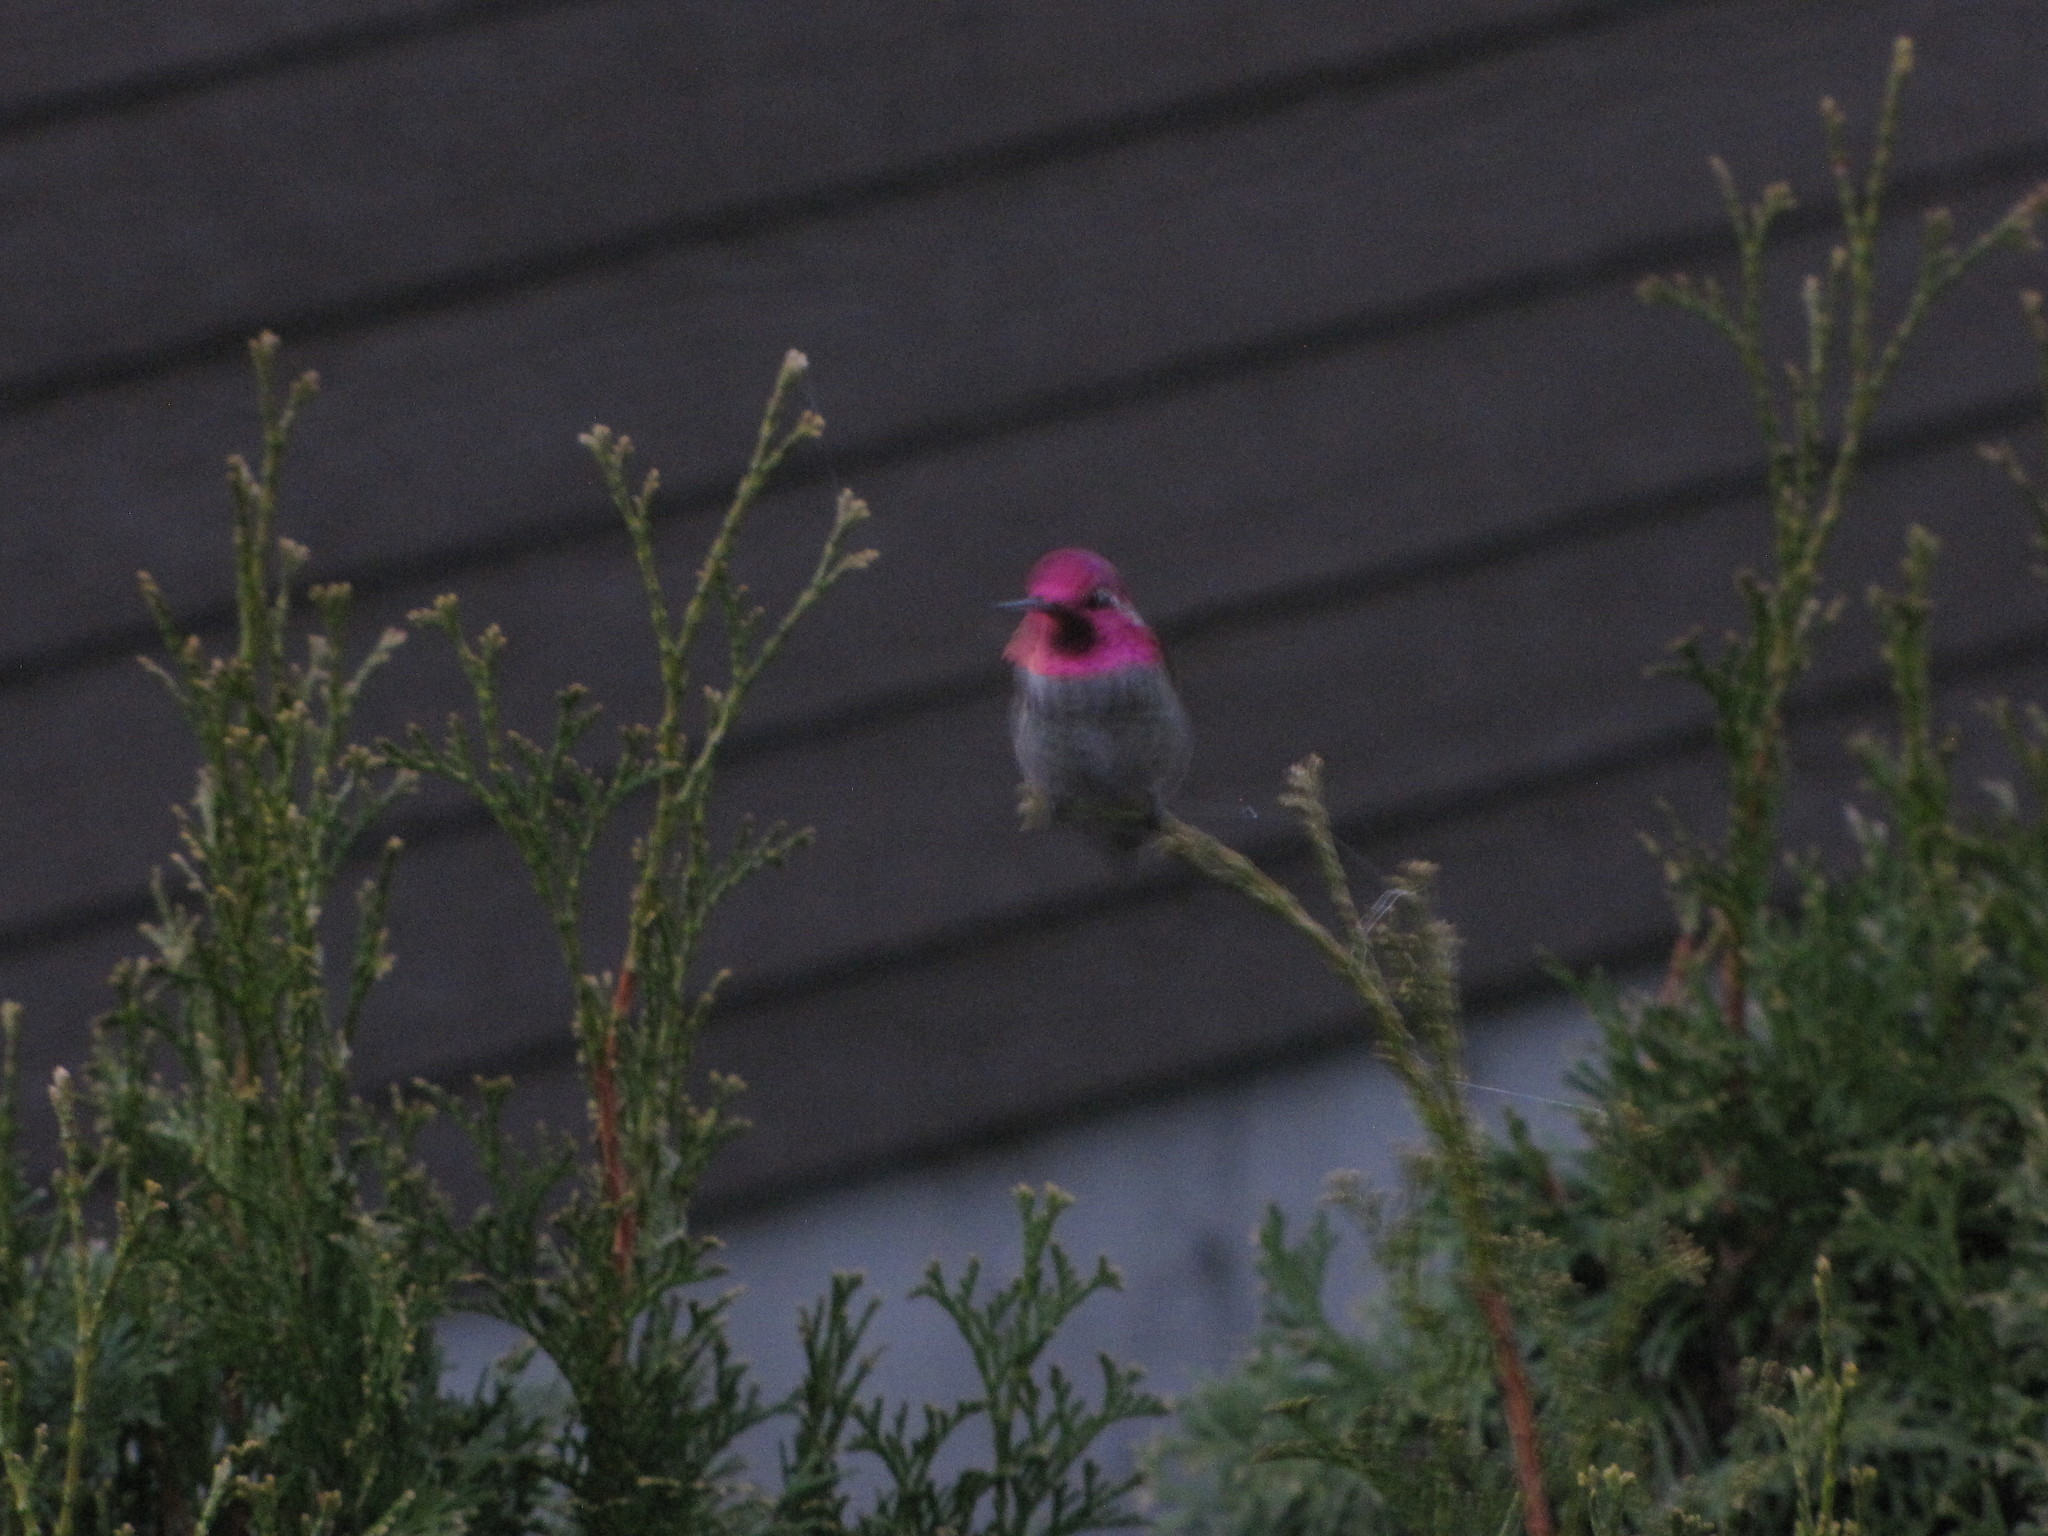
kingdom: Animalia
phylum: Chordata
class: Aves
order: Apodiformes
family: Trochilidae
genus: Calypte
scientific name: Calypte anna
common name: Anna's hummingbird
